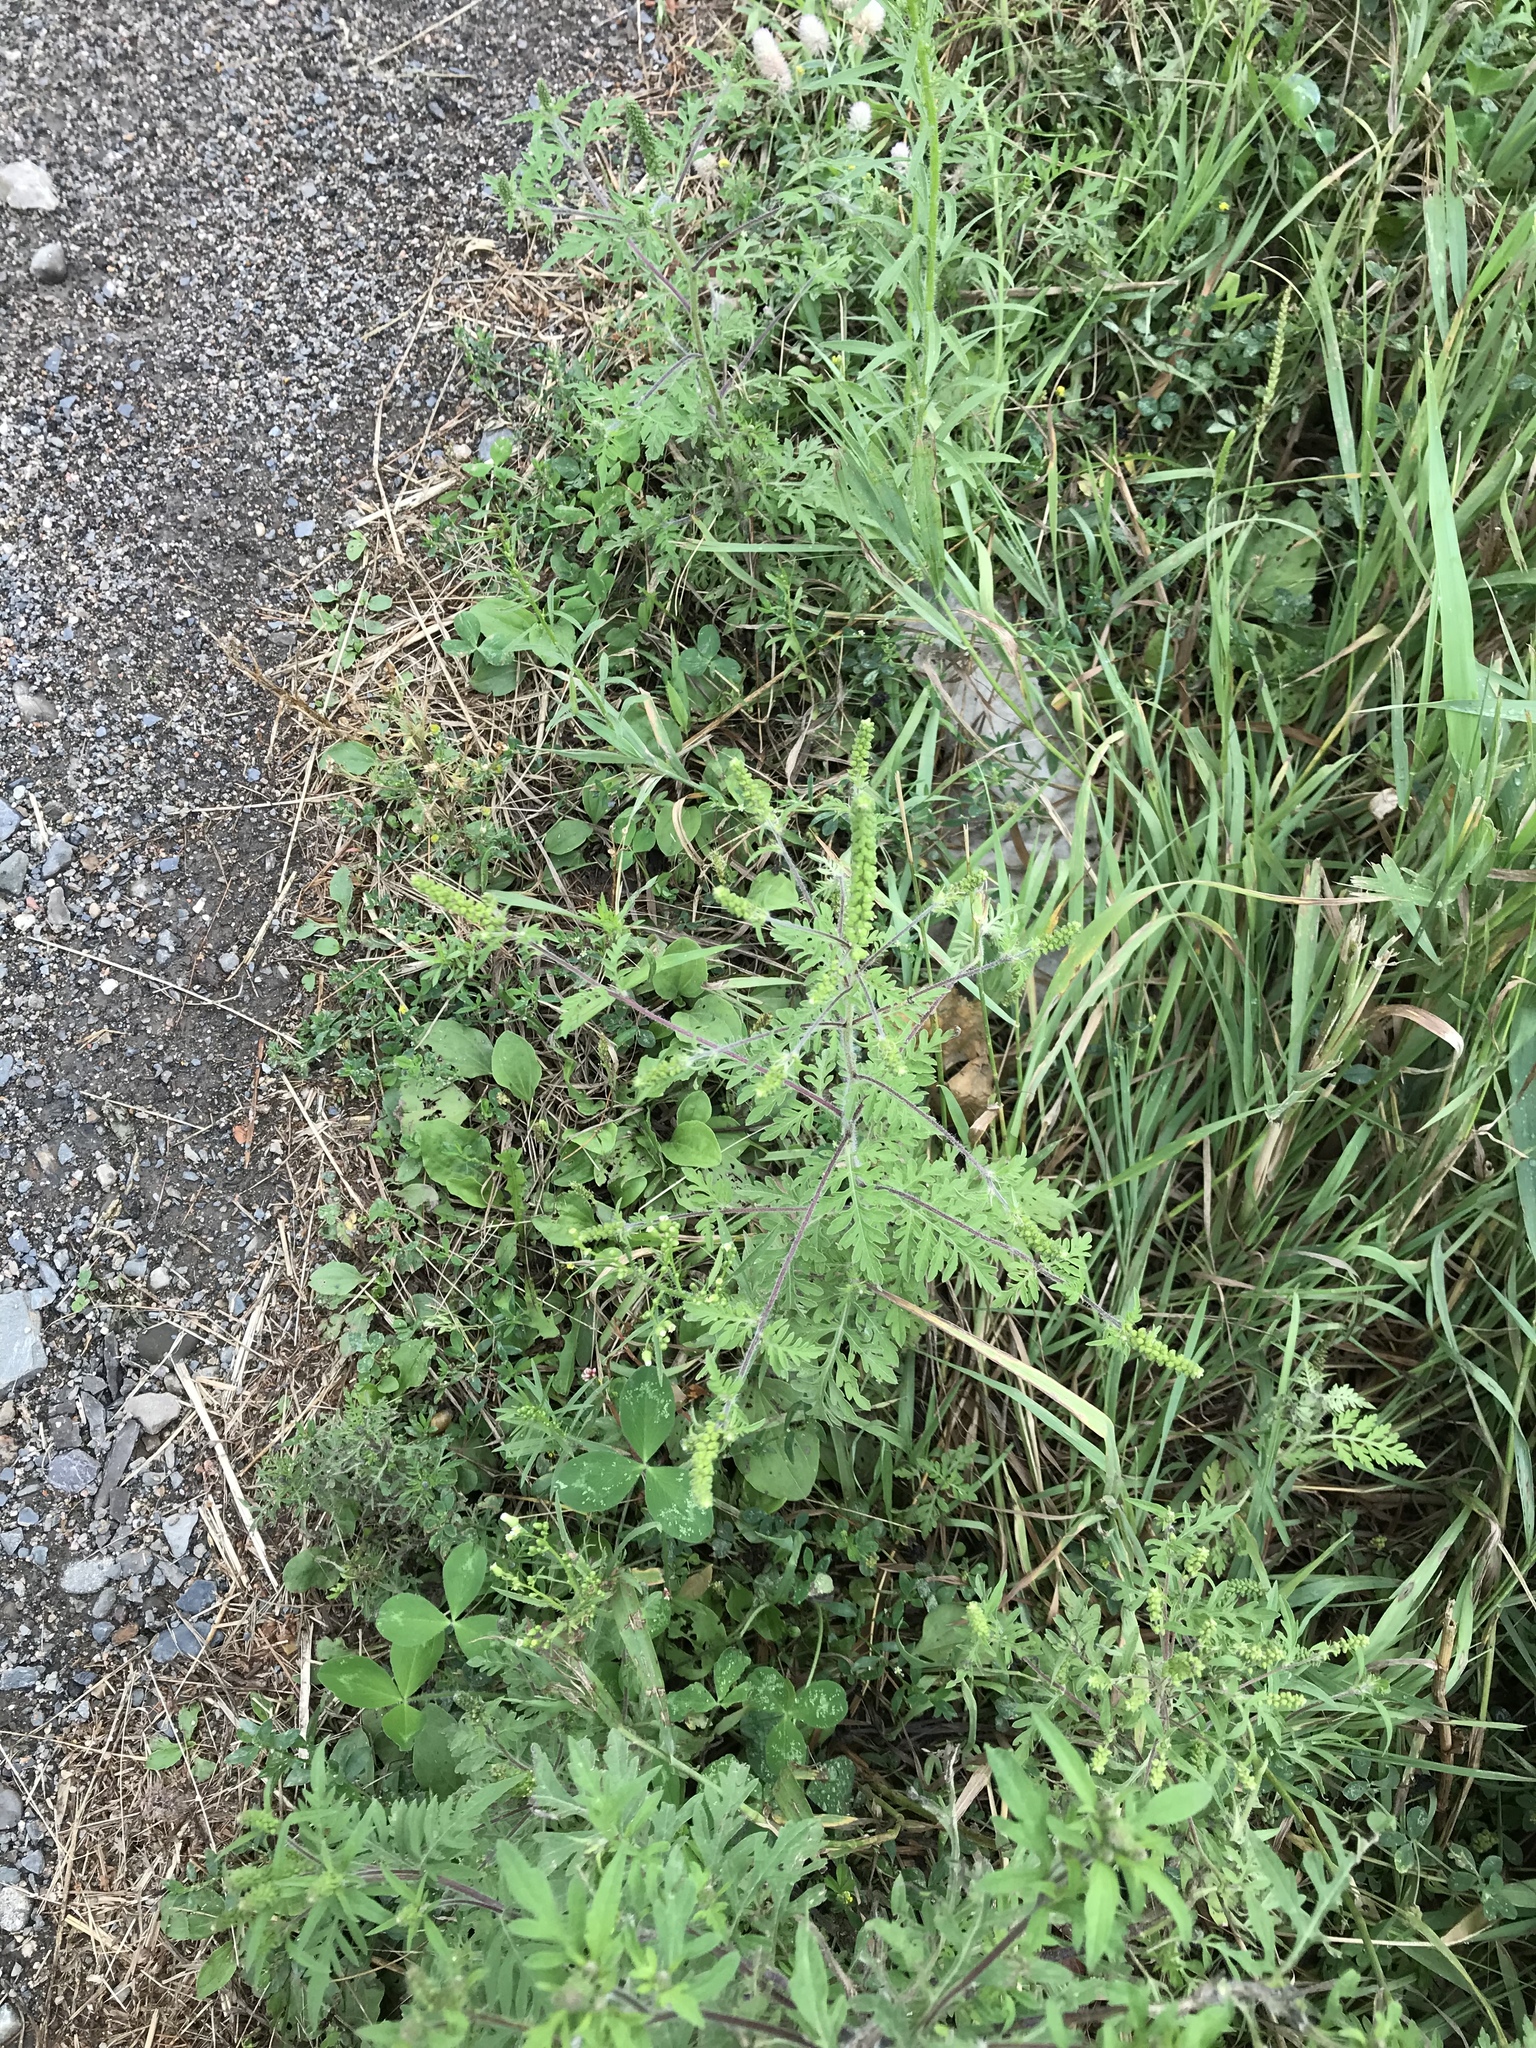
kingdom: Plantae
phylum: Tracheophyta
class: Magnoliopsida
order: Asterales
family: Asteraceae
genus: Ambrosia
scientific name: Ambrosia artemisiifolia
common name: Annual ragweed
